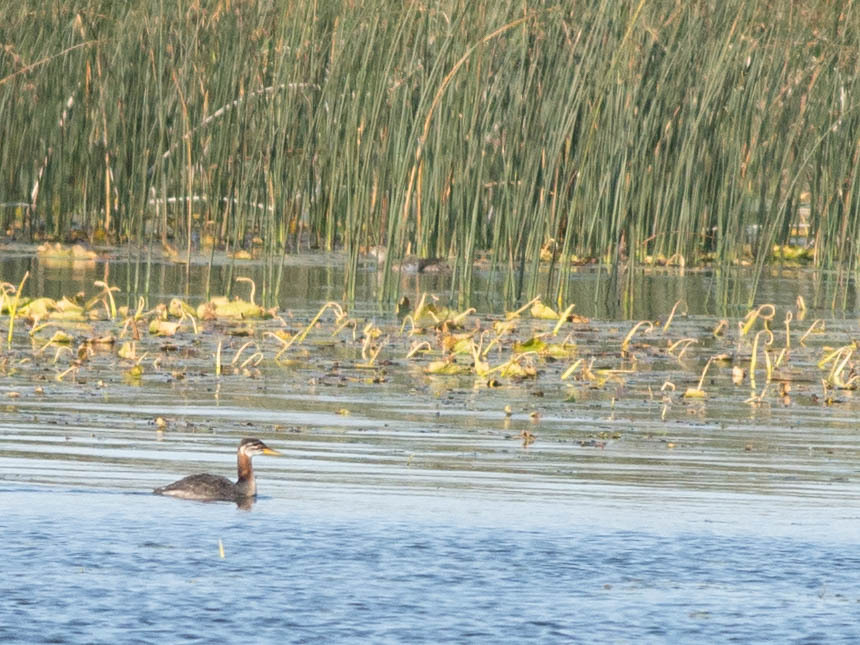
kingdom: Animalia
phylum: Chordata
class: Aves
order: Podicipediformes
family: Podicipedidae
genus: Podiceps
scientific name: Podiceps grisegena
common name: Red-necked grebe
